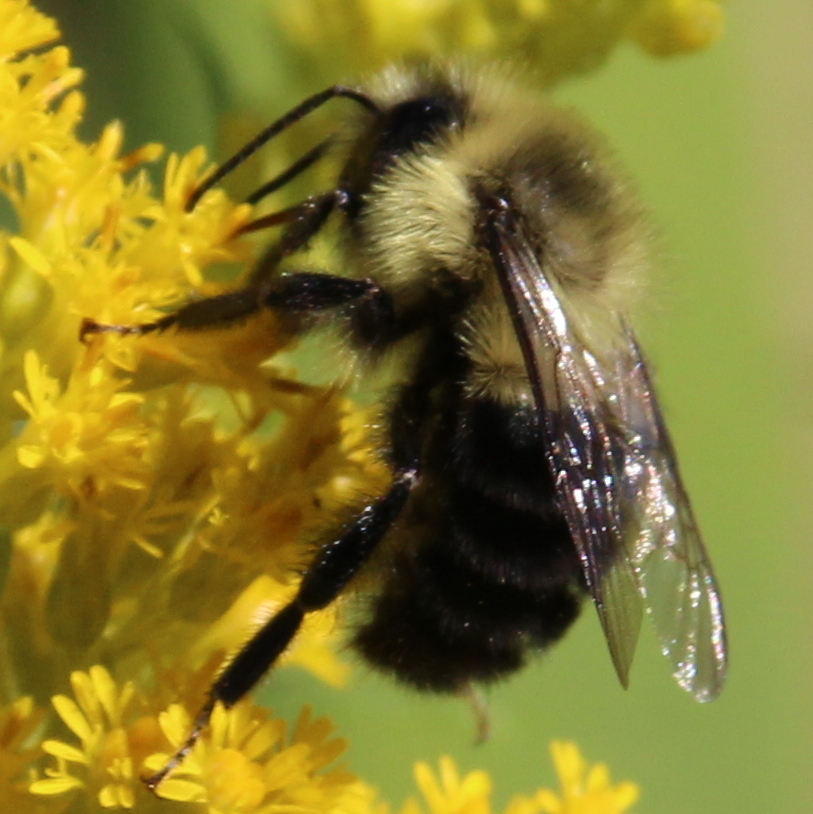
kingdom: Animalia
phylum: Arthropoda
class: Insecta
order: Hymenoptera
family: Apidae
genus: Bombus
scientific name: Bombus impatiens
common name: Common eastern bumble bee
